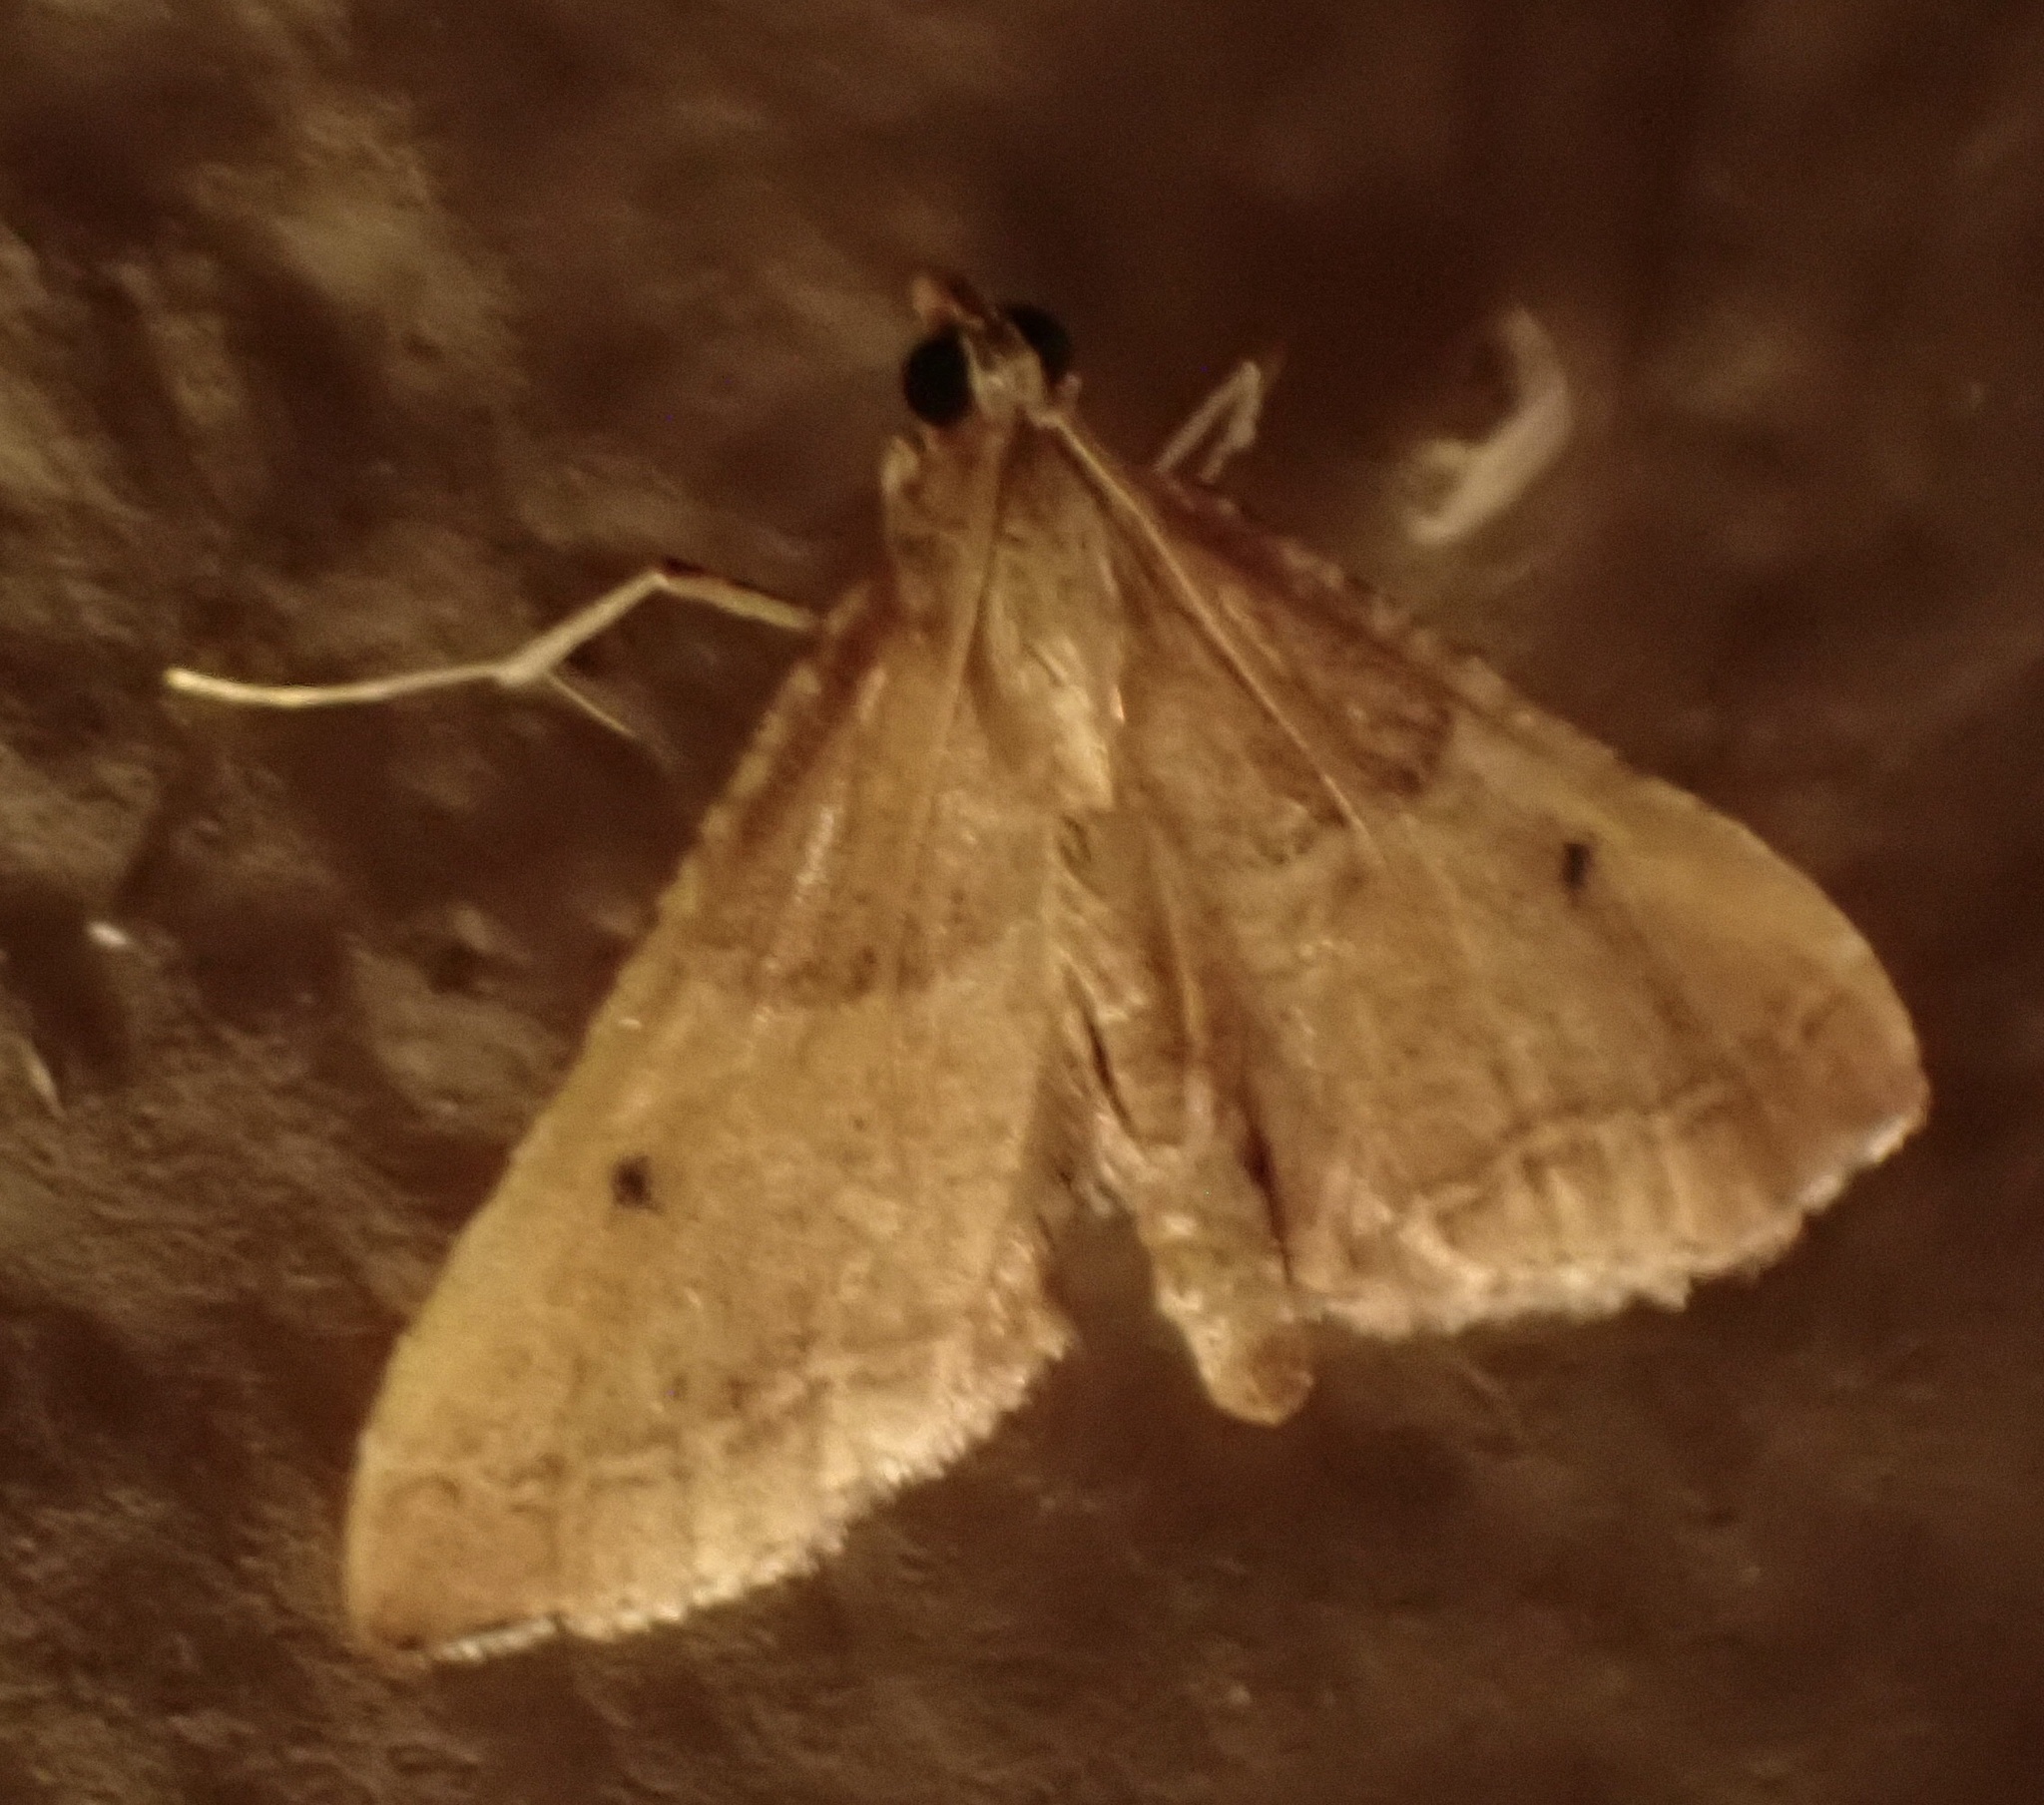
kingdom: Animalia
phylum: Arthropoda
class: Insecta
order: Lepidoptera
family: Pyralidae
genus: Endotricha
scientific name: Endotricha flammealis
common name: Rosy tabby
